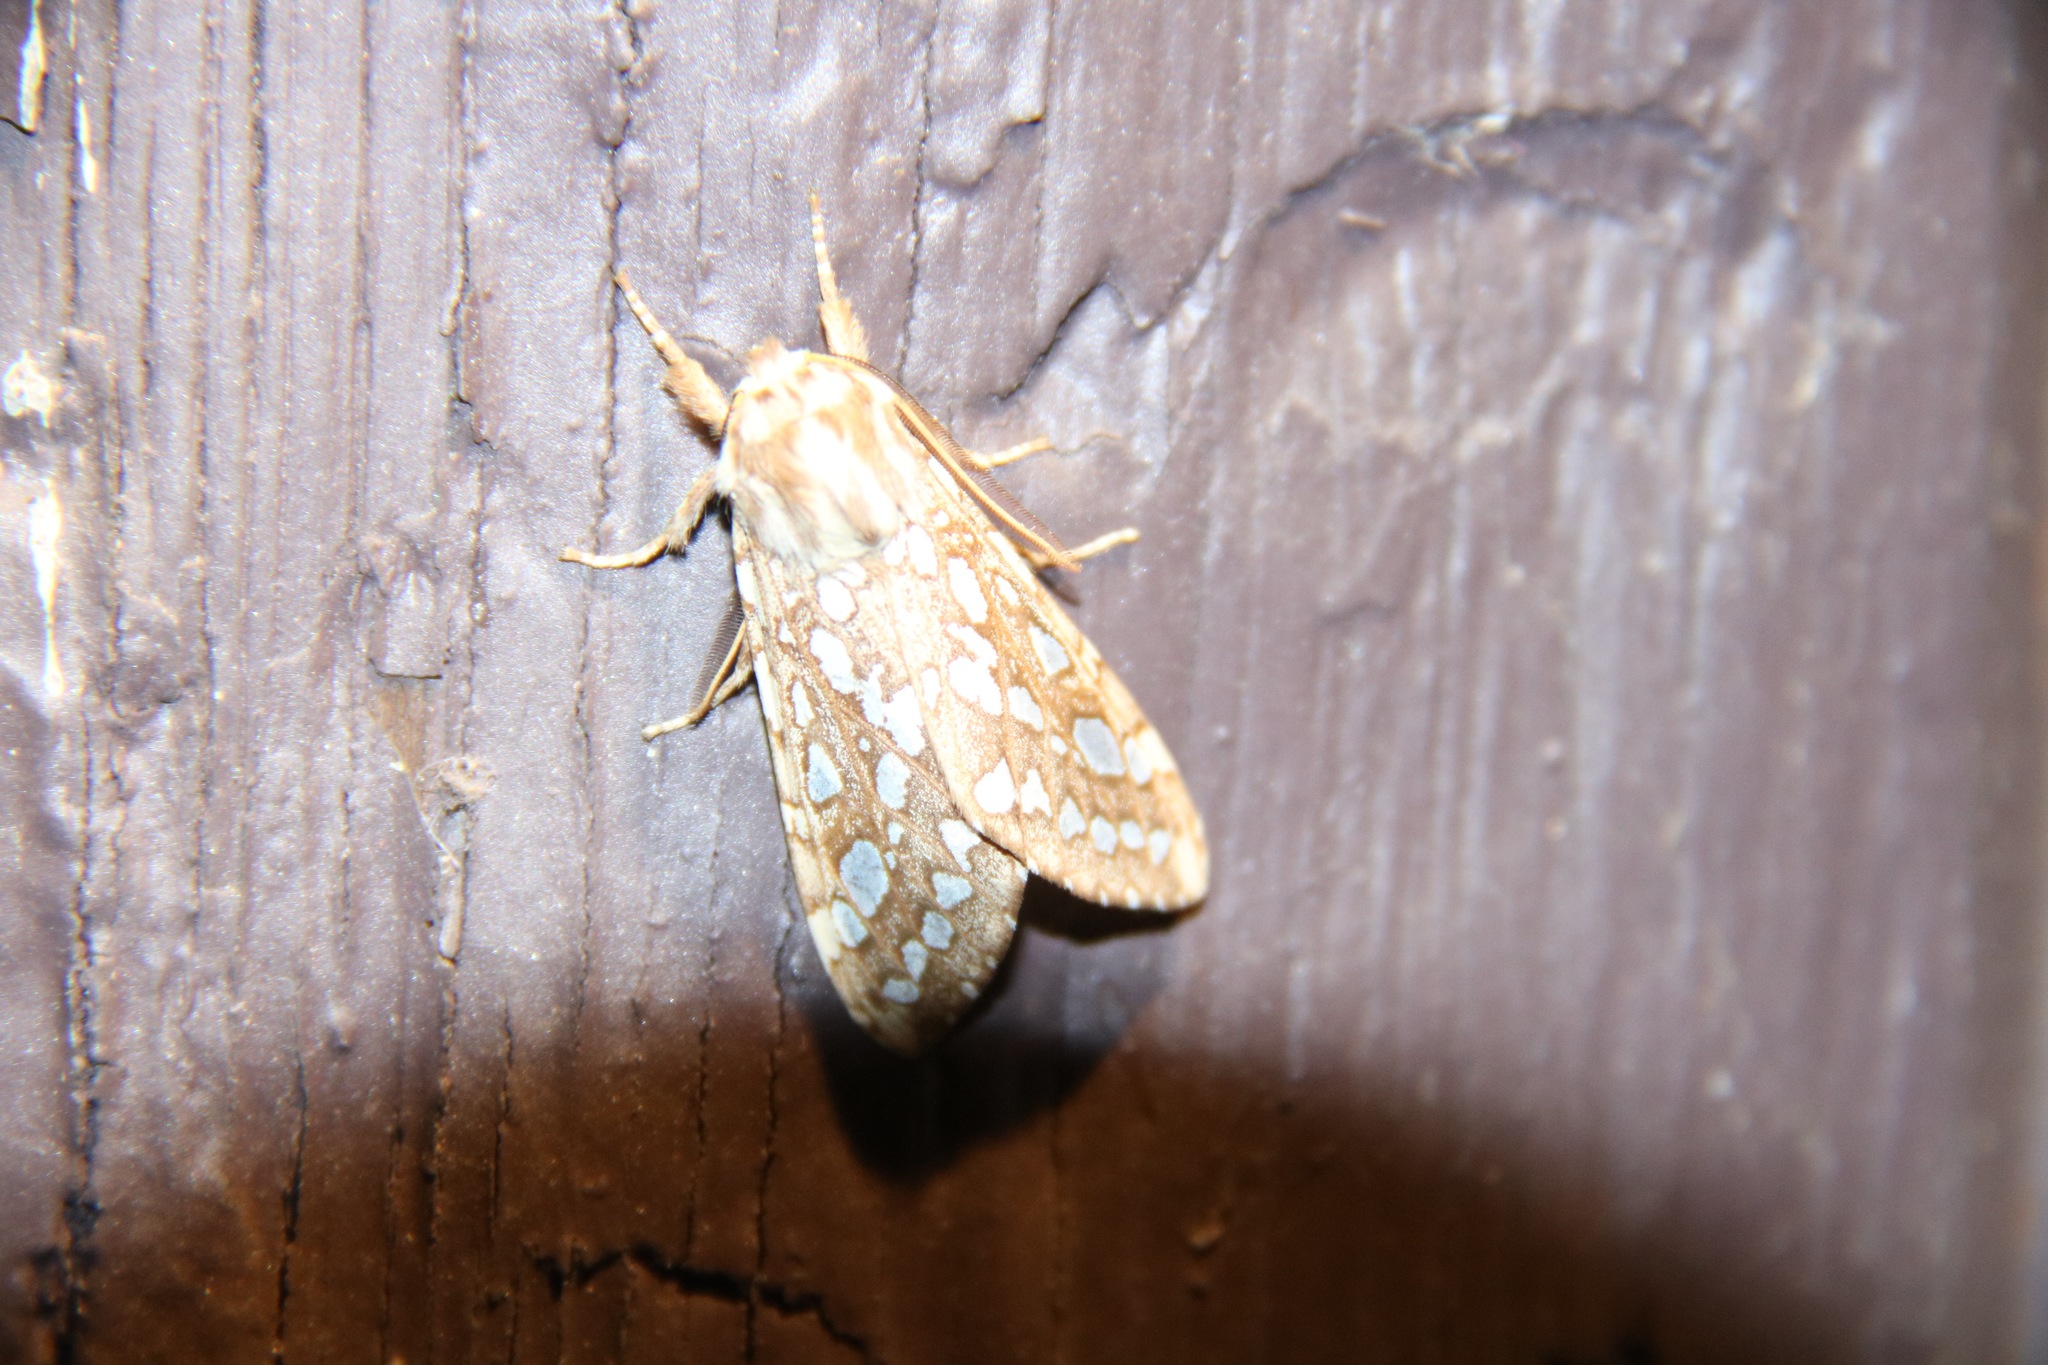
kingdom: Animalia
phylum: Arthropoda
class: Insecta
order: Lepidoptera
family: Erebidae
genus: Lophocampa
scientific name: Lophocampa argentata
